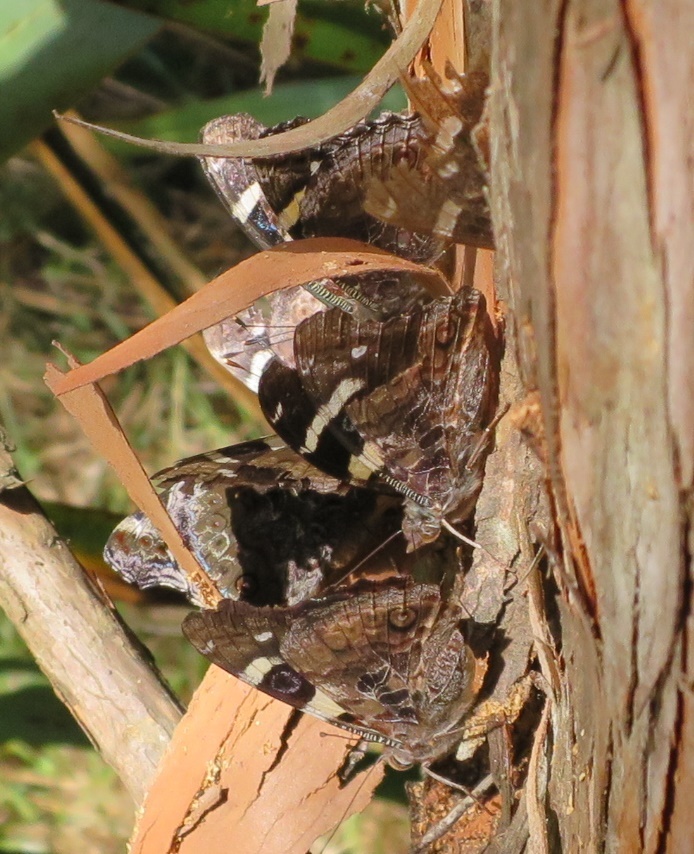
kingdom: Animalia
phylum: Arthropoda
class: Insecta
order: Lepidoptera
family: Nymphalidae
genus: Vanessa
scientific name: Vanessa itea
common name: Yellow admiral
